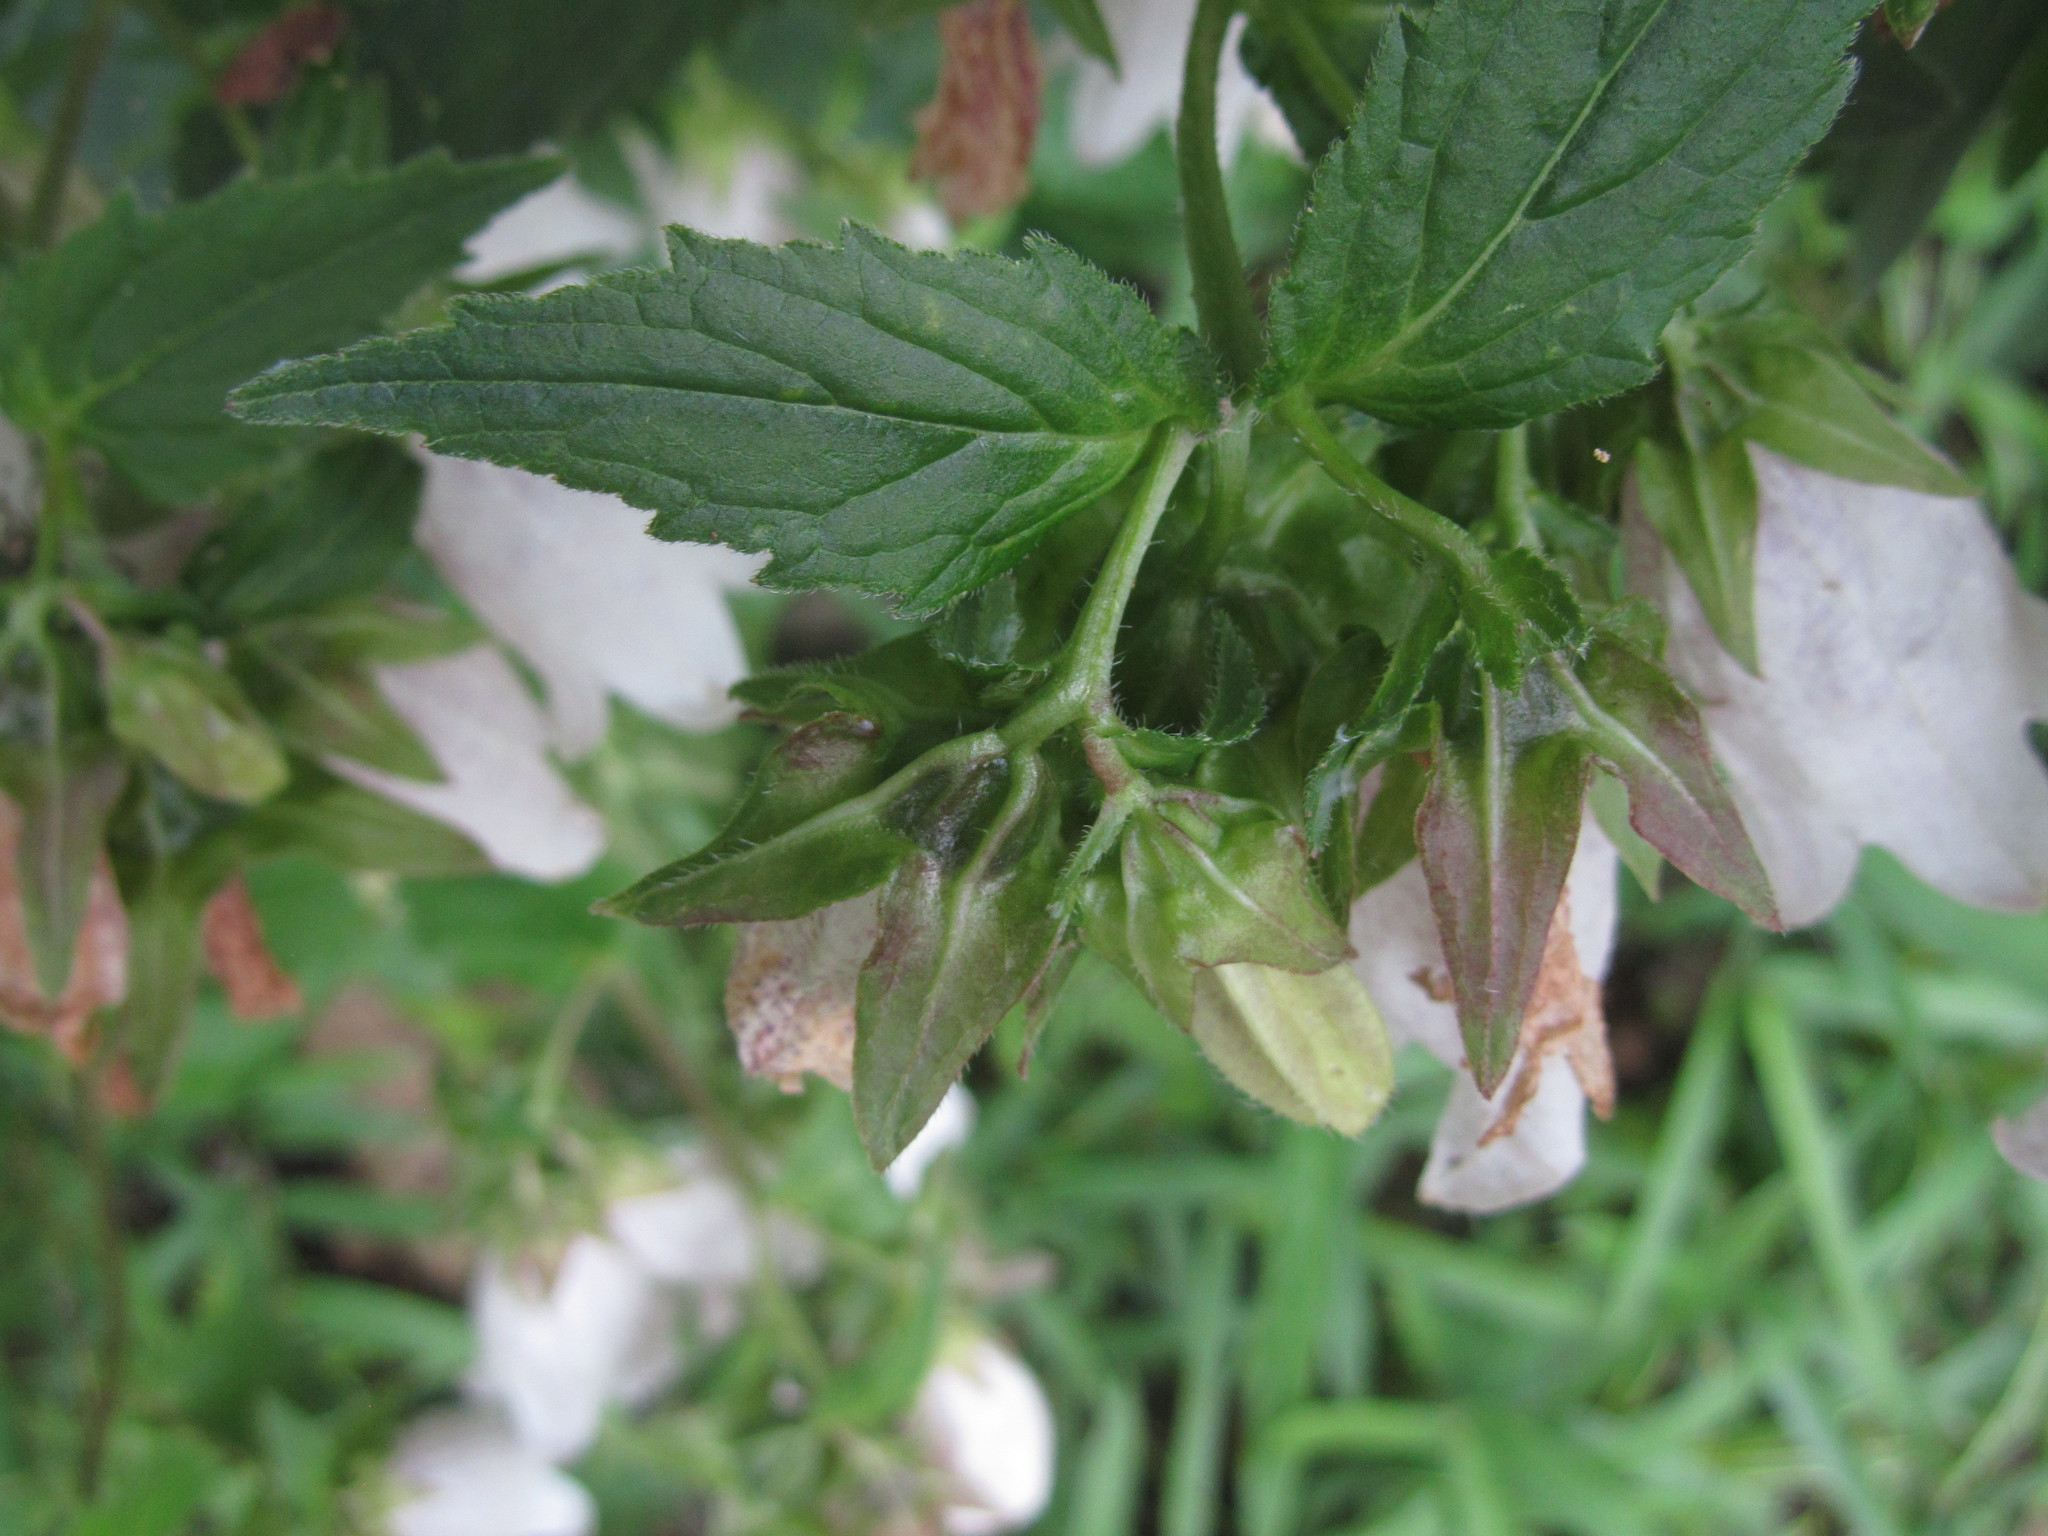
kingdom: Plantae
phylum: Tracheophyta
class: Magnoliopsida
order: Asterales
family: Campanulaceae
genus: Campanula
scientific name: Campanula punctata
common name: Spotted bellflower
